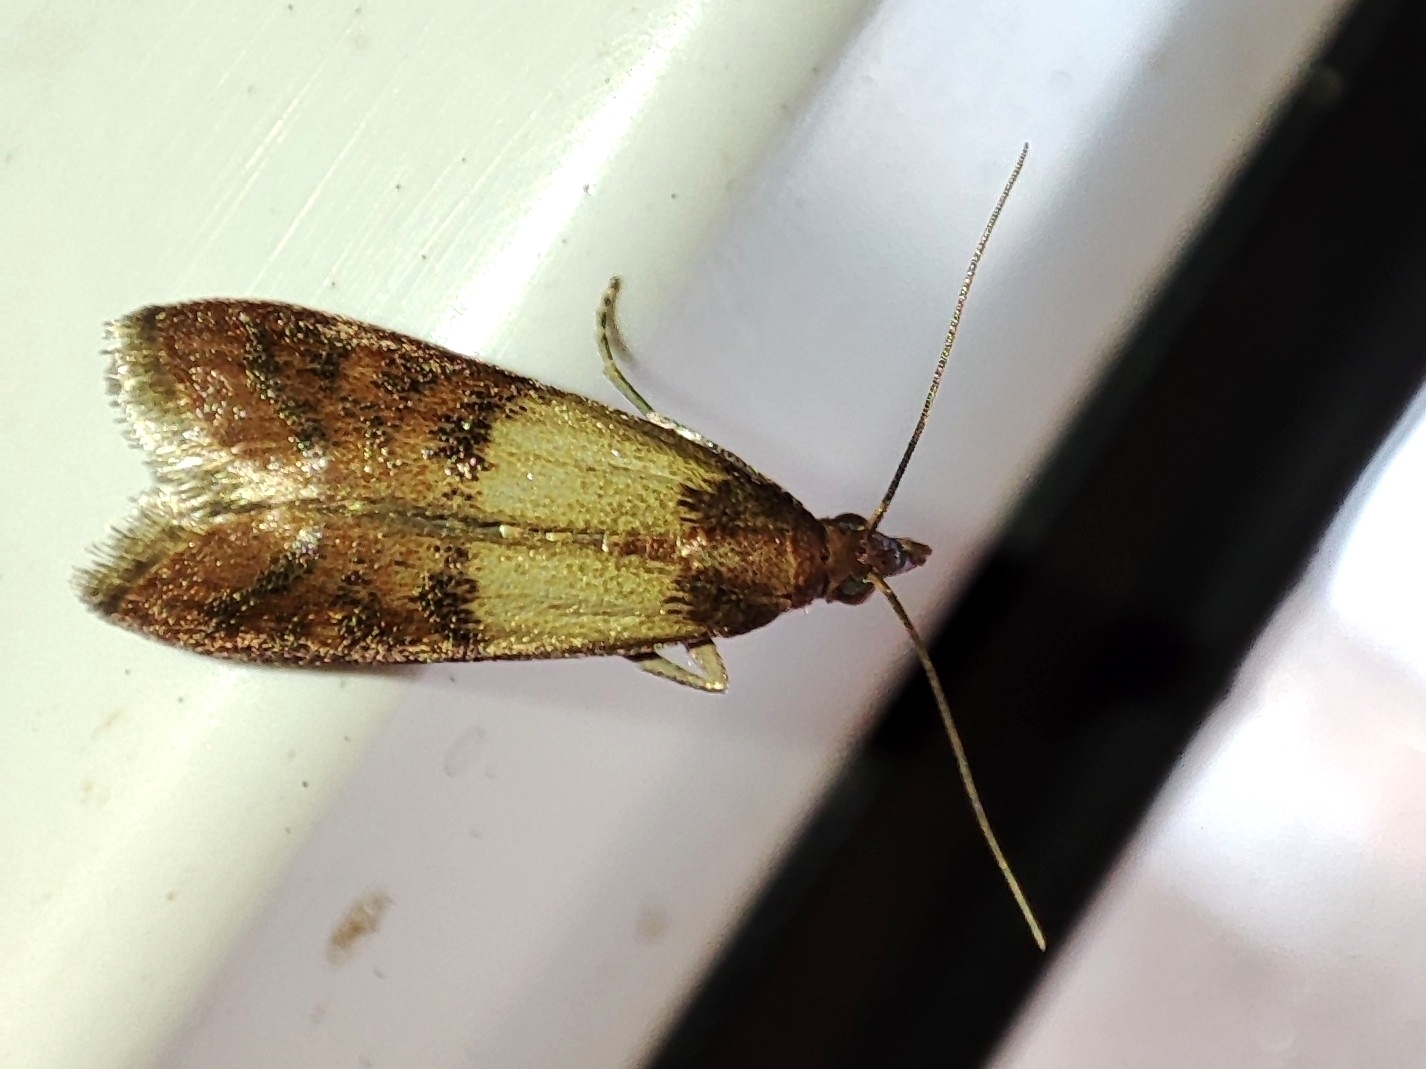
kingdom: Animalia
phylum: Arthropoda
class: Insecta
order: Lepidoptera
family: Pyralidae
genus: Plodia
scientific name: Plodia interpunctella
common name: Indian meal moth
